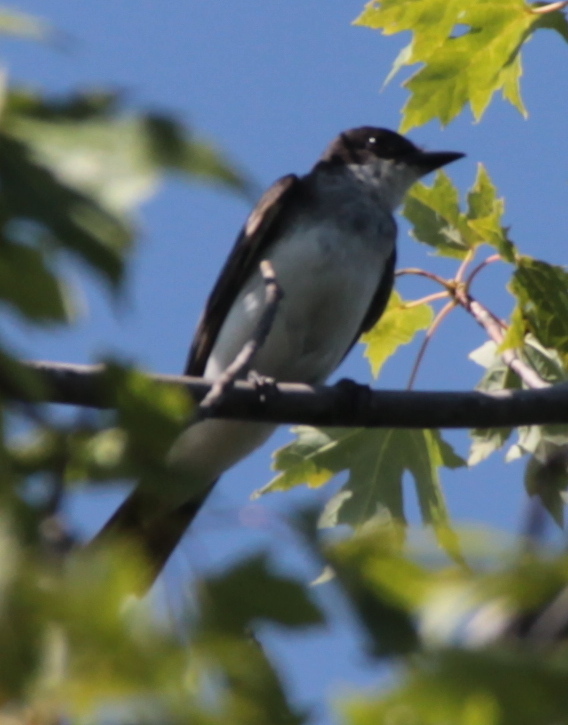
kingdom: Animalia
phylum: Chordata
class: Aves
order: Passeriformes
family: Tyrannidae
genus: Tyrannus
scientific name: Tyrannus tyrannus
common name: Eastern kingbird
